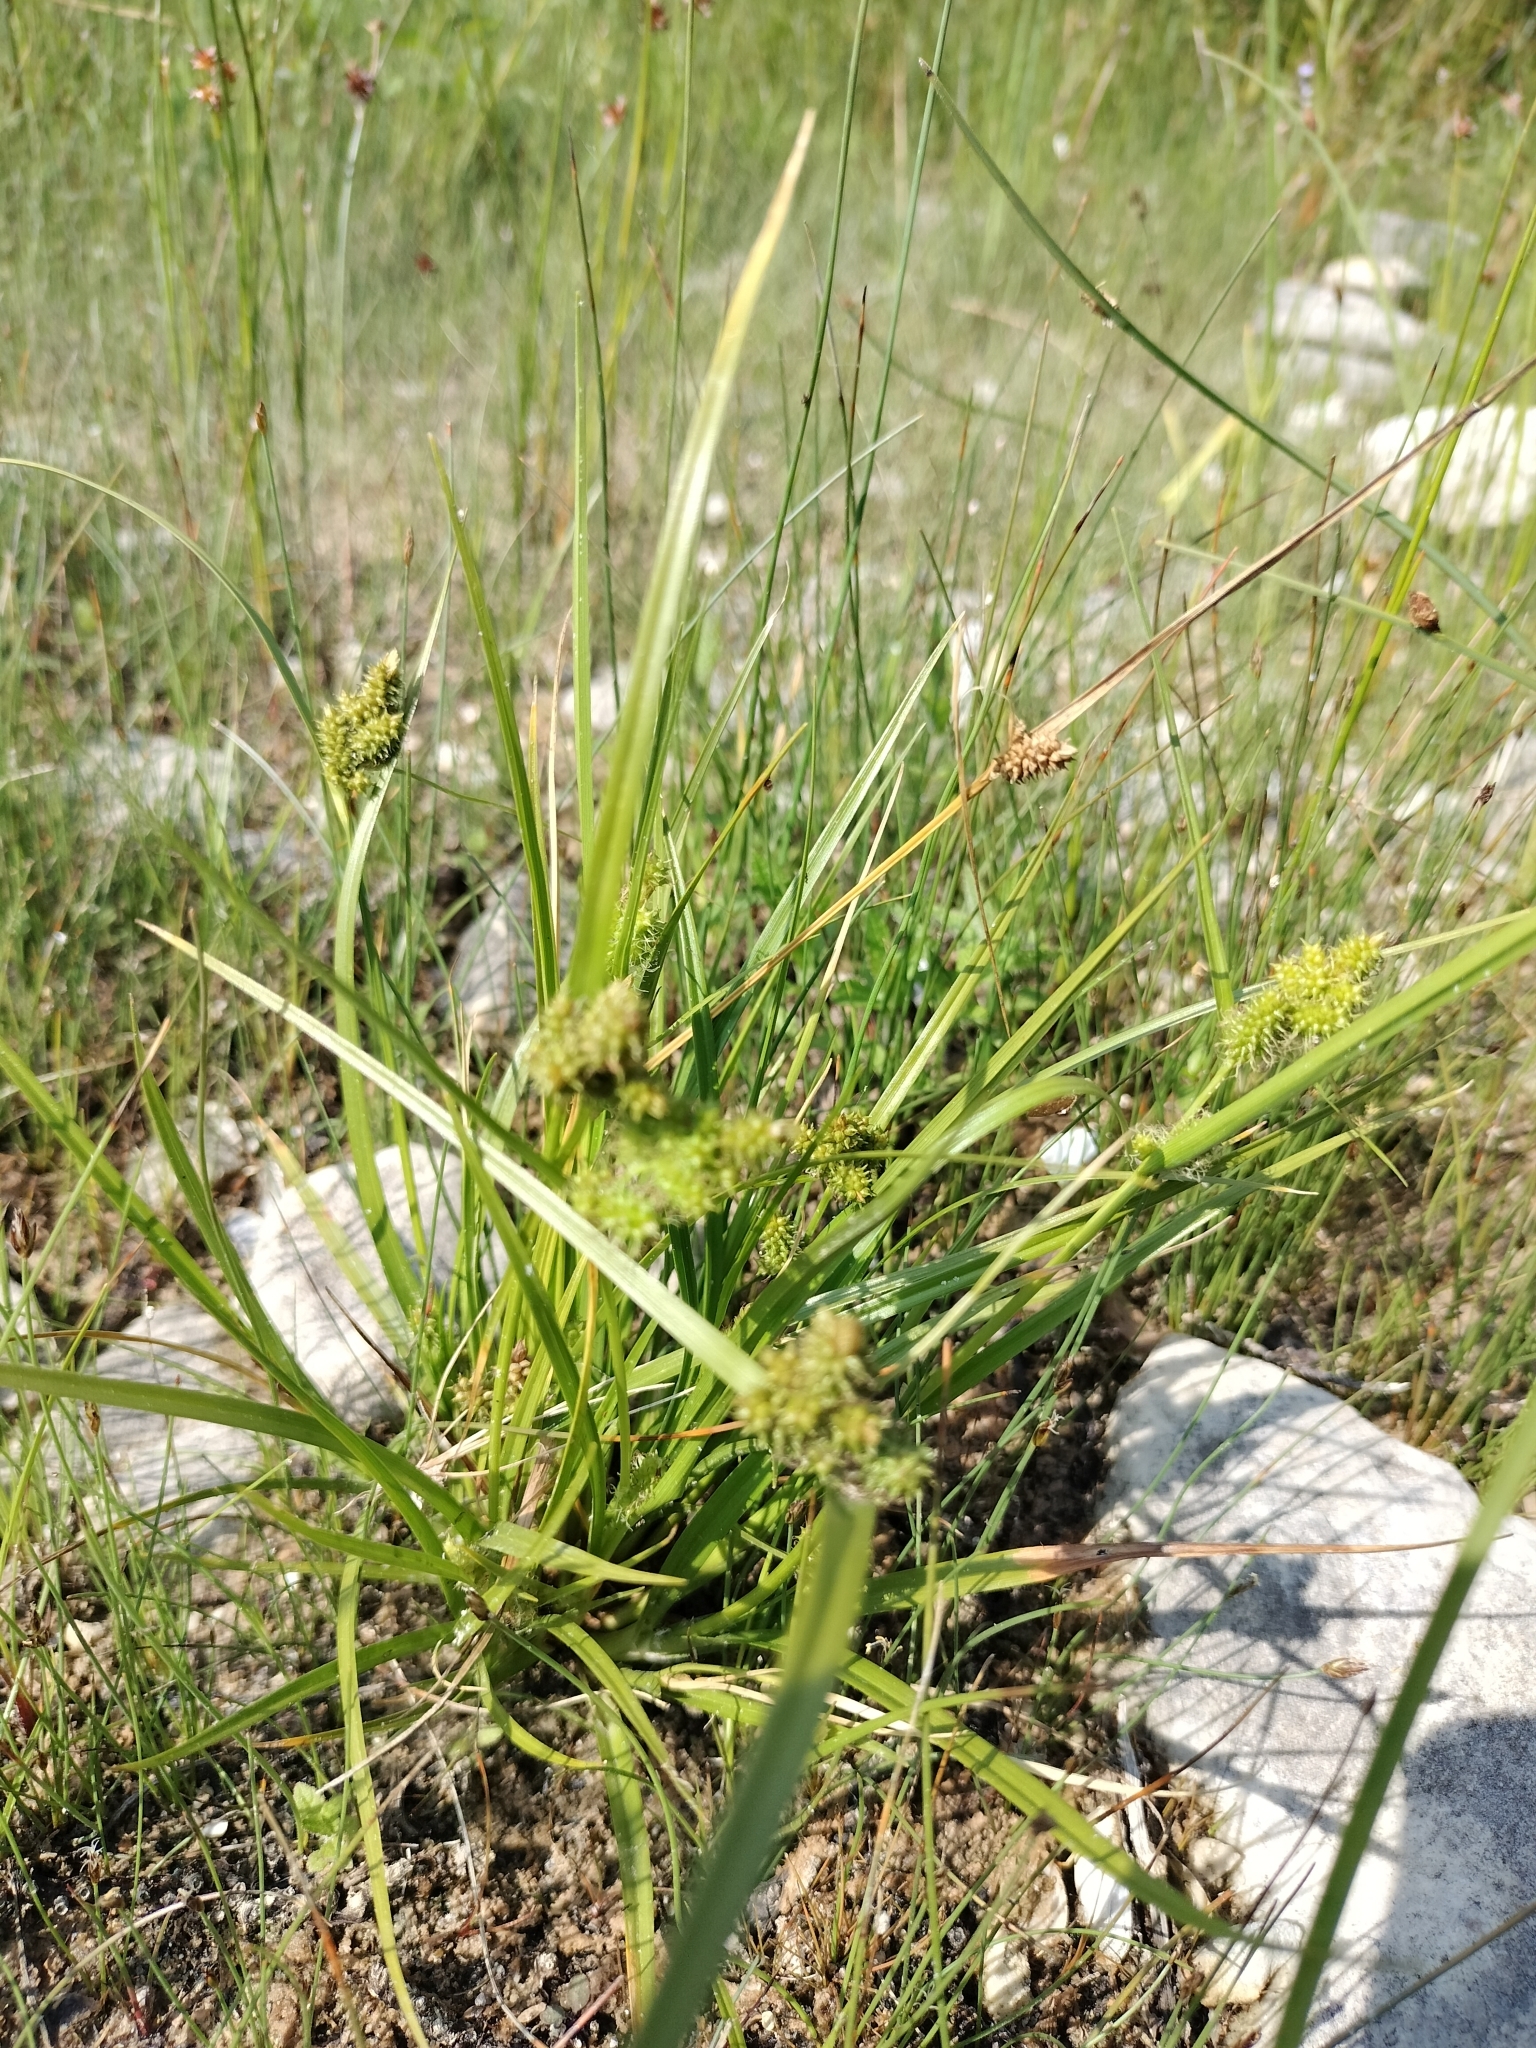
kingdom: Plantae
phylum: Tracheophyta
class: Liliopsida
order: Poales
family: Cyperaceae
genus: Carex
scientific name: Carex
